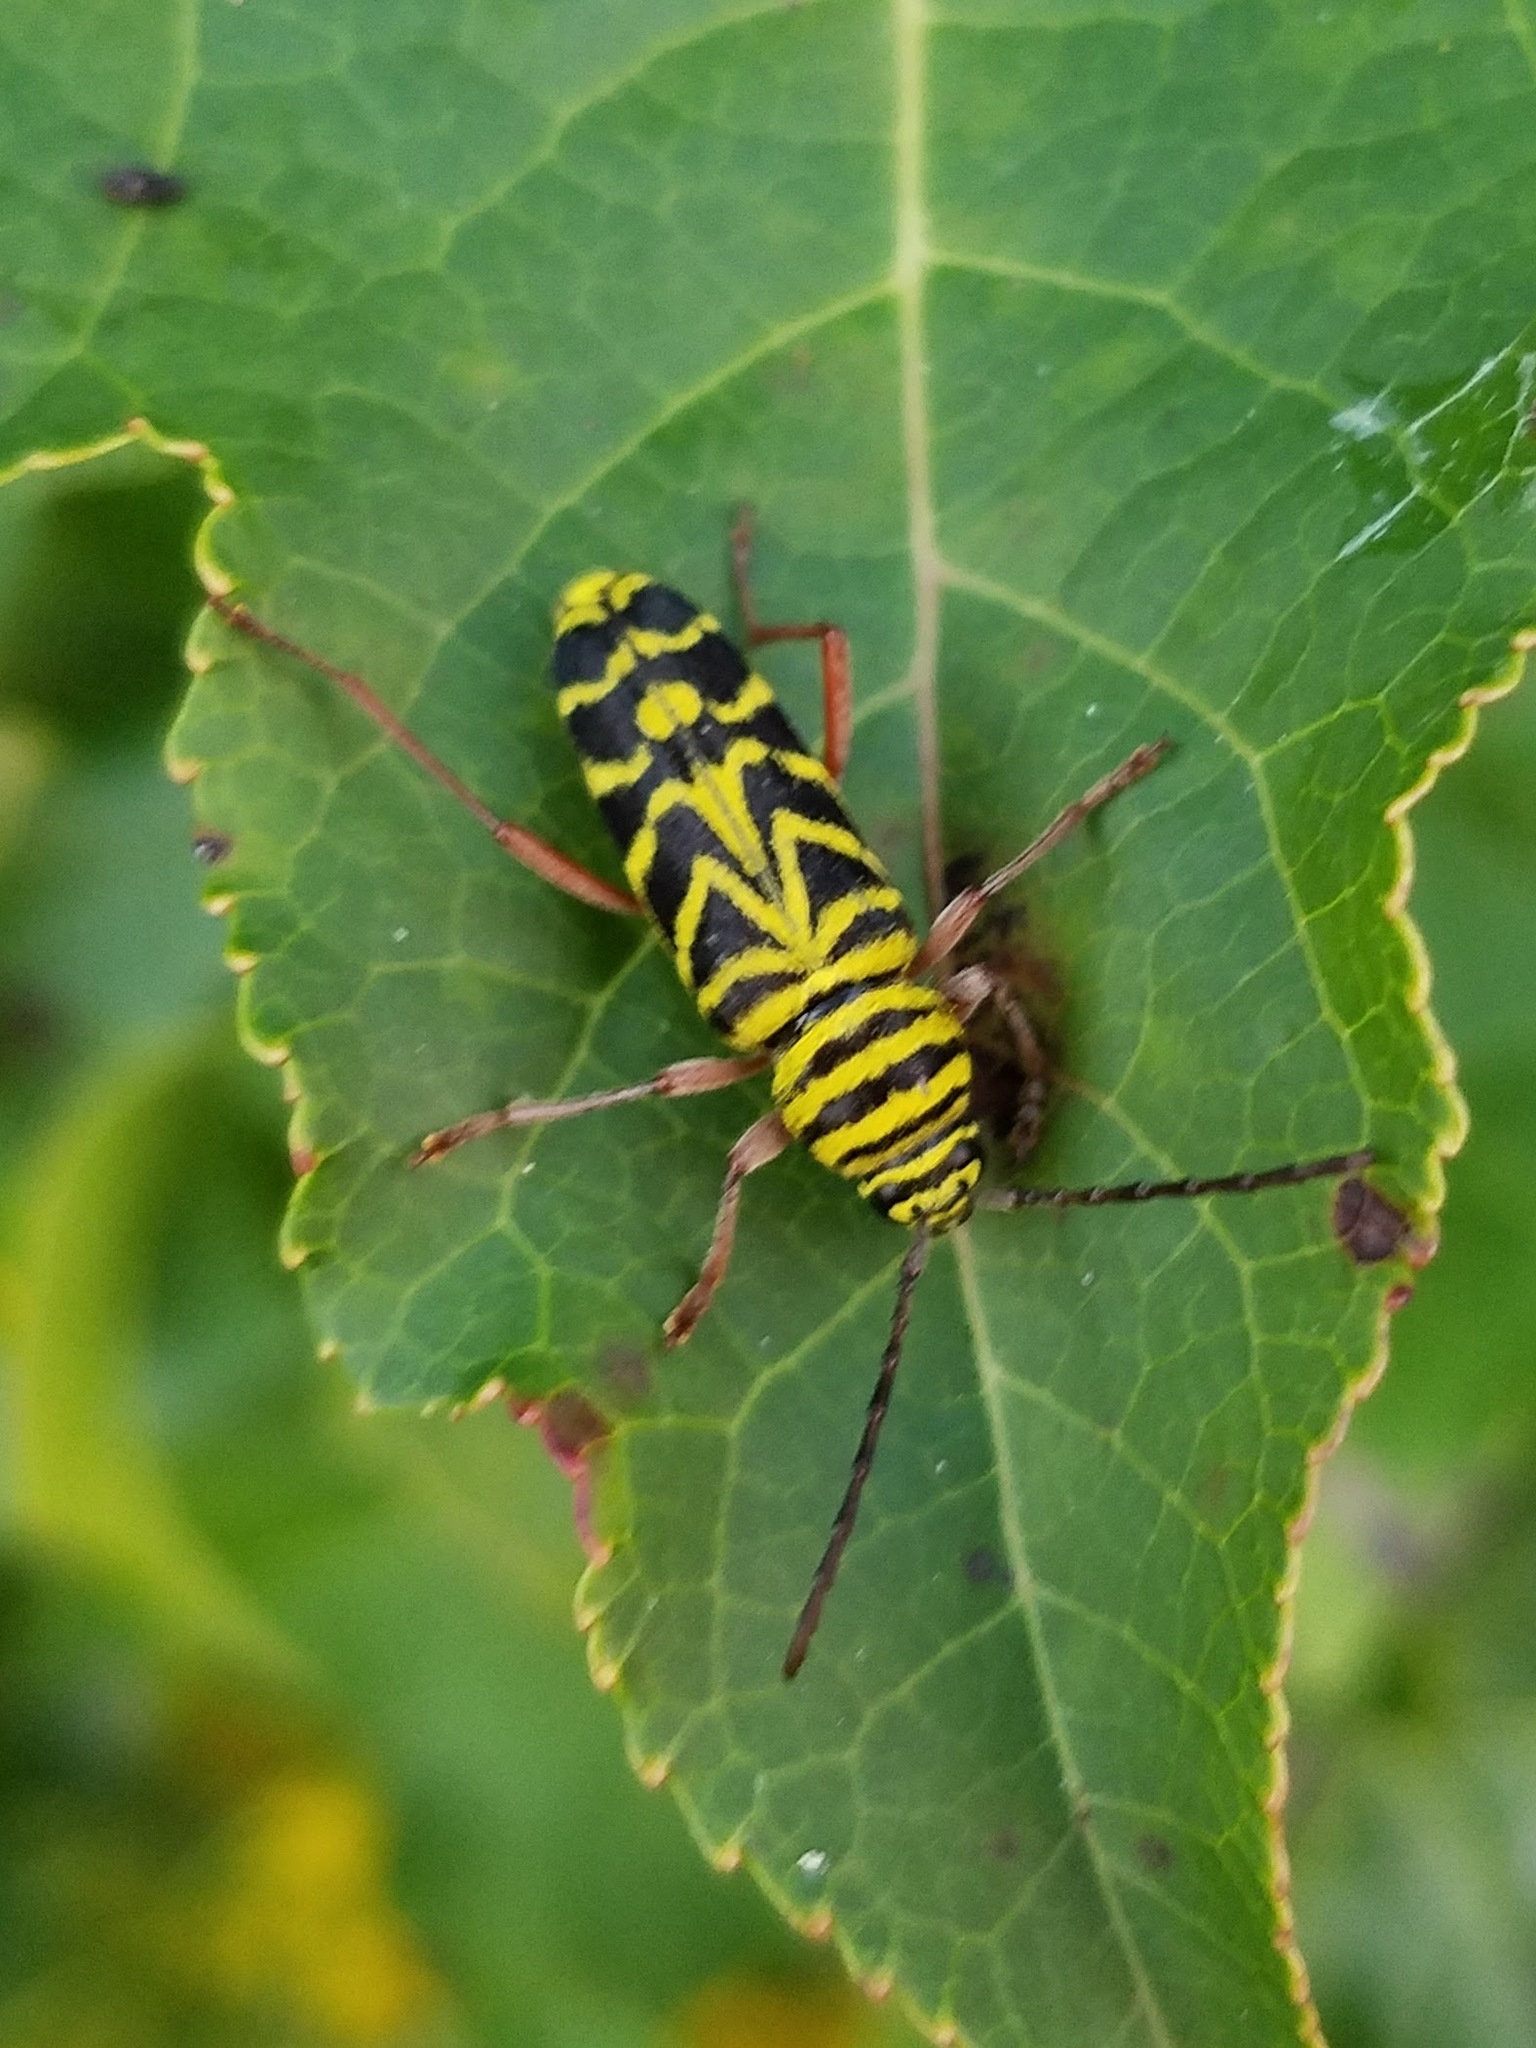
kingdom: Animalia
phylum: Arthropoda
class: Insecta
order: Coleoptera
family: Cerambycidae
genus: Megacyllene
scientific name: Megacyllene robiniae
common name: Locust borer
